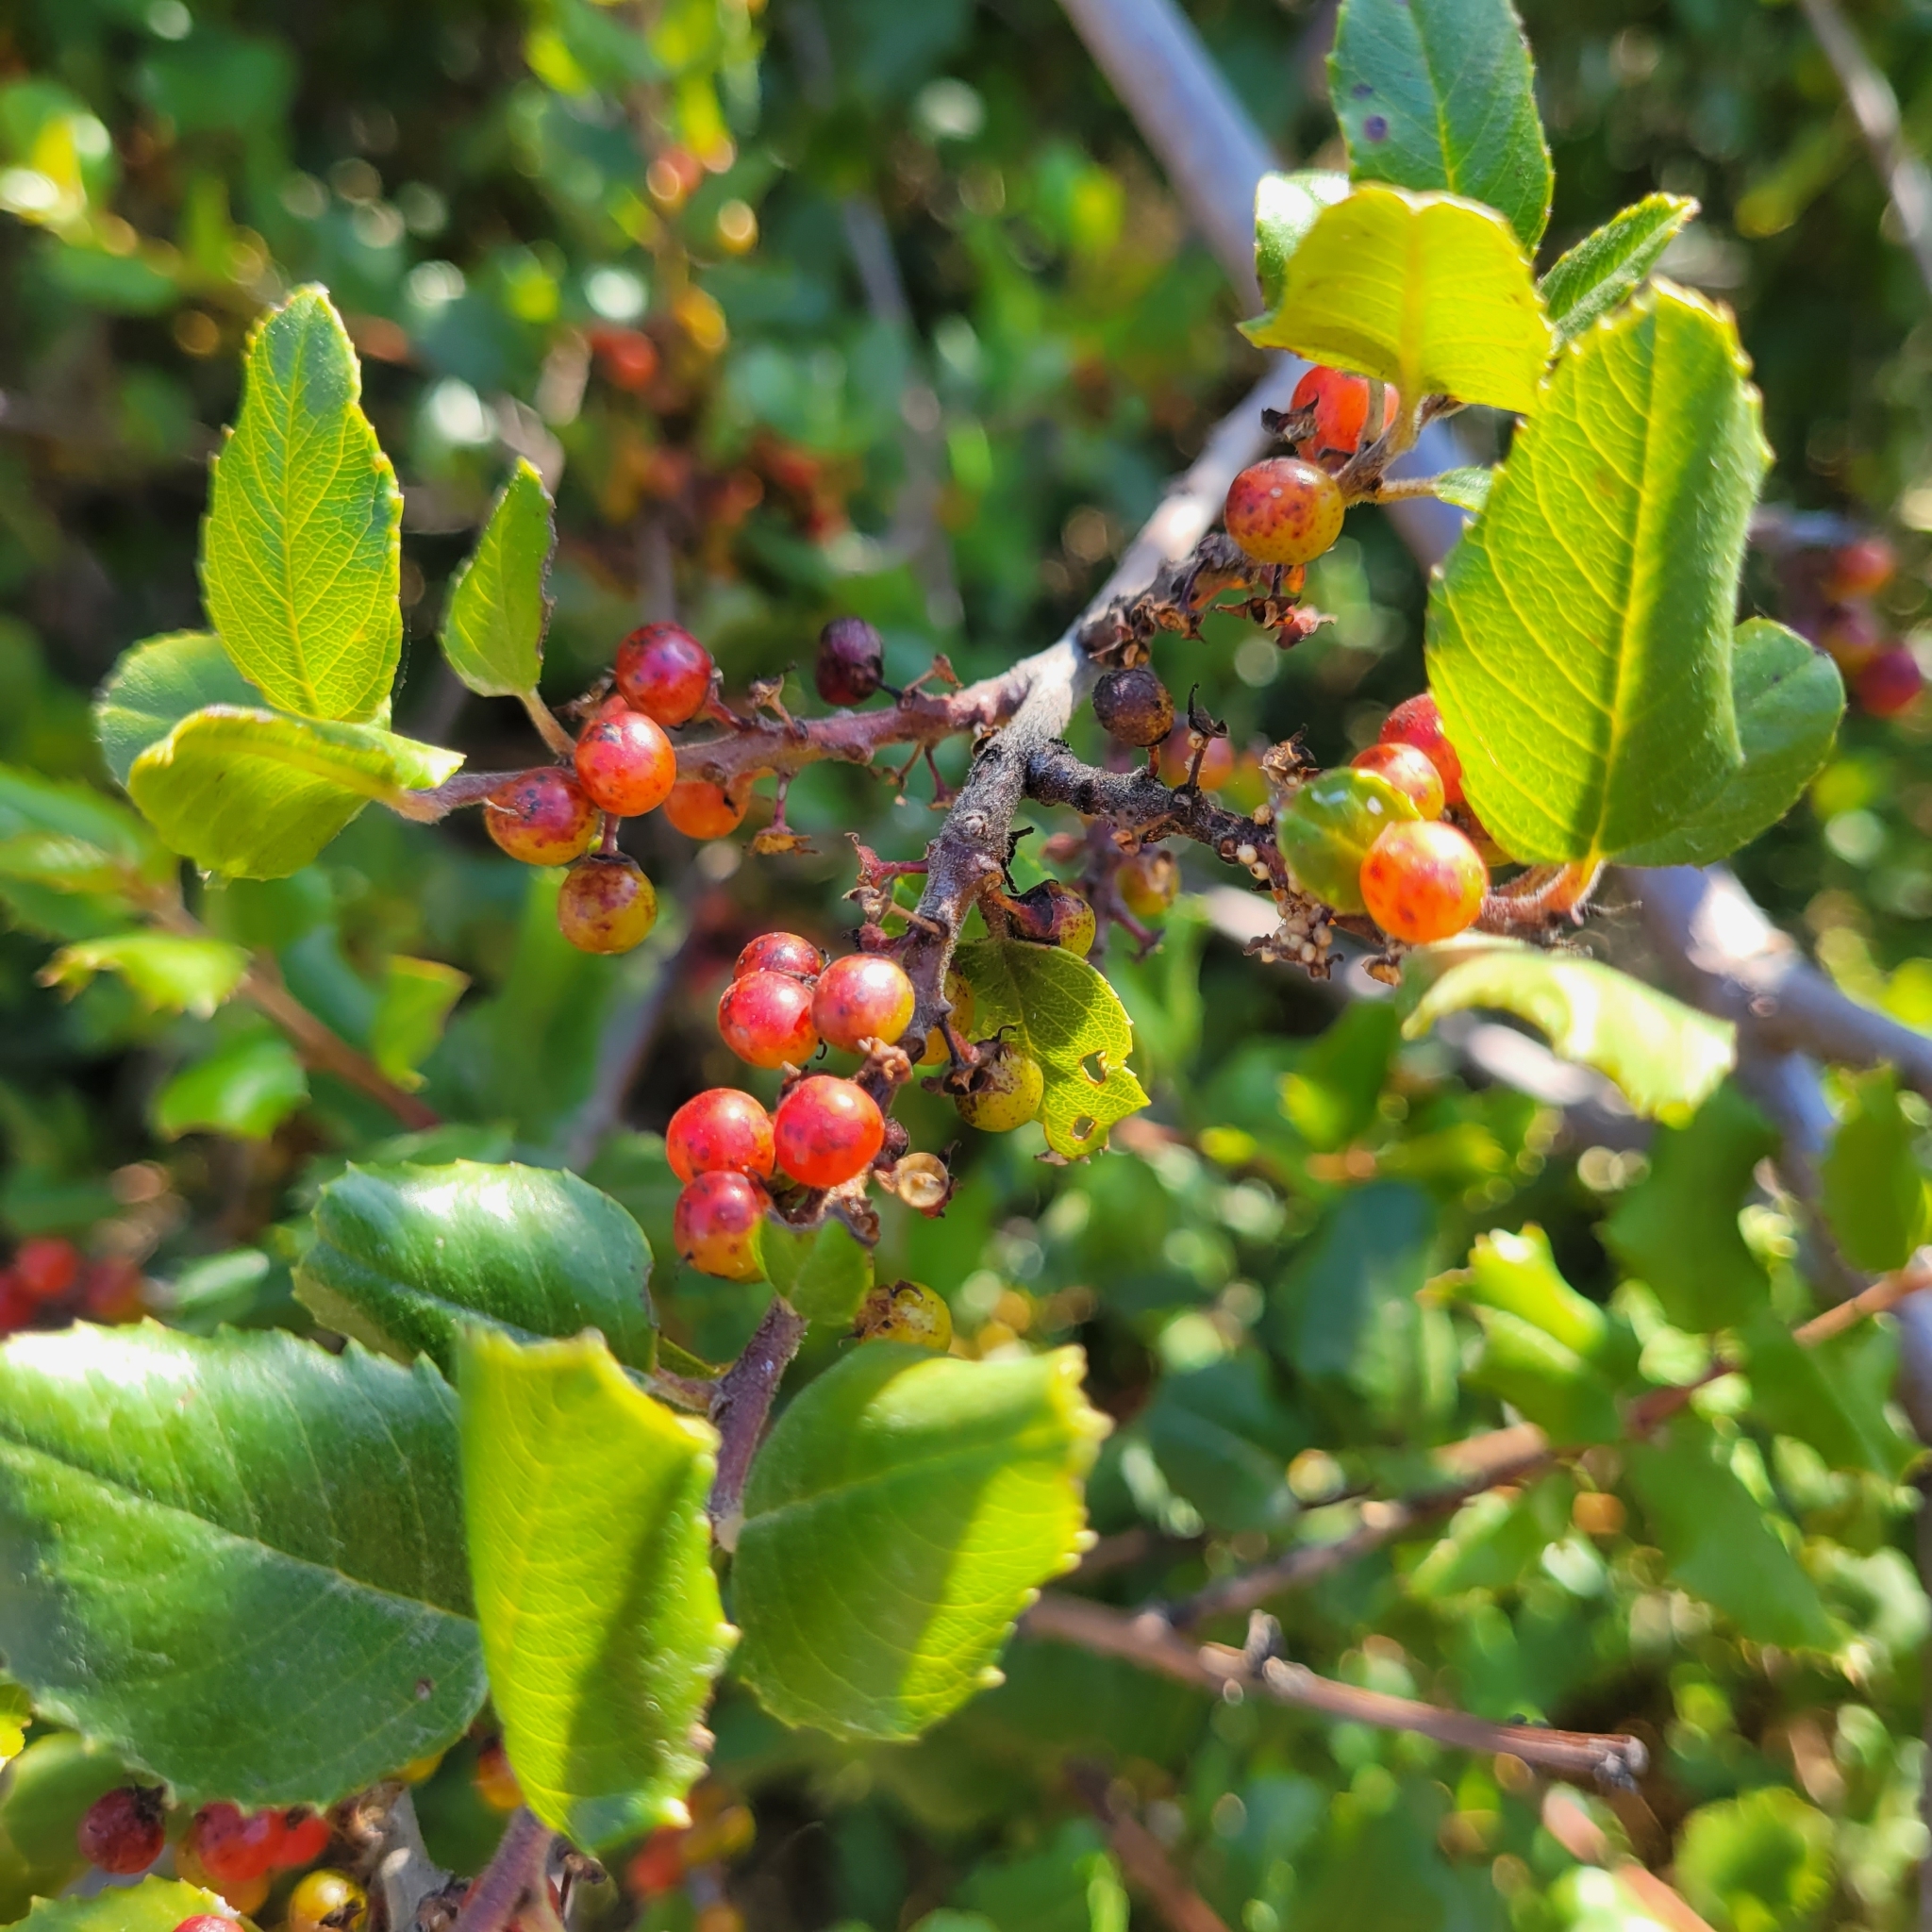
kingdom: Plantae
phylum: Tracheophyta
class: Magnoliopsida
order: Rosales
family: Rhamnaceae
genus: Endotropis
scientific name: Endotropis crocea
